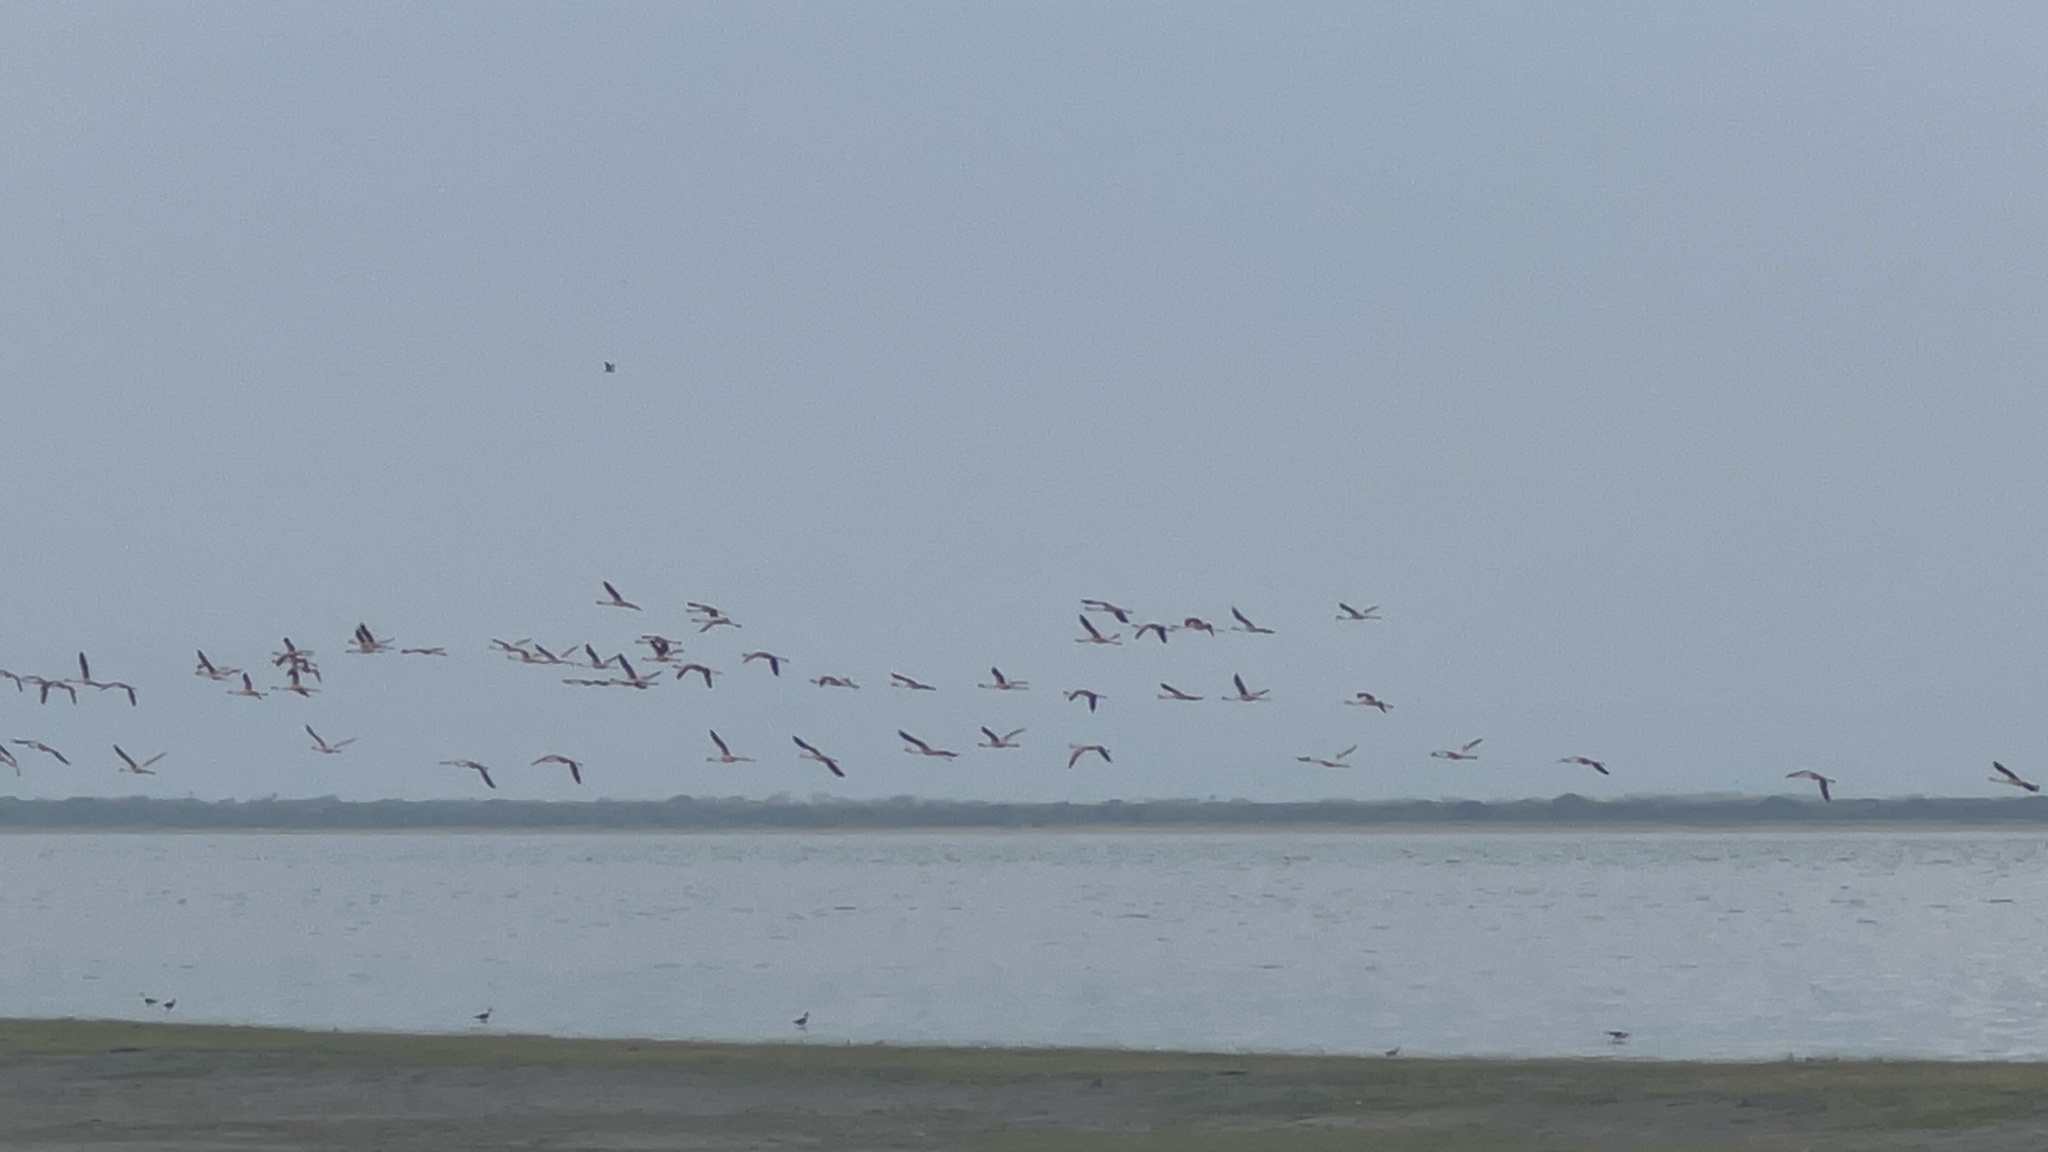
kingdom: Animalia
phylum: Chordata
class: Aves
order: Phoenicopteriformes
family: Phoenicopteridae
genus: Phoenicopterus
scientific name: Phoenicopterus roseus
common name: Greater flamingo
